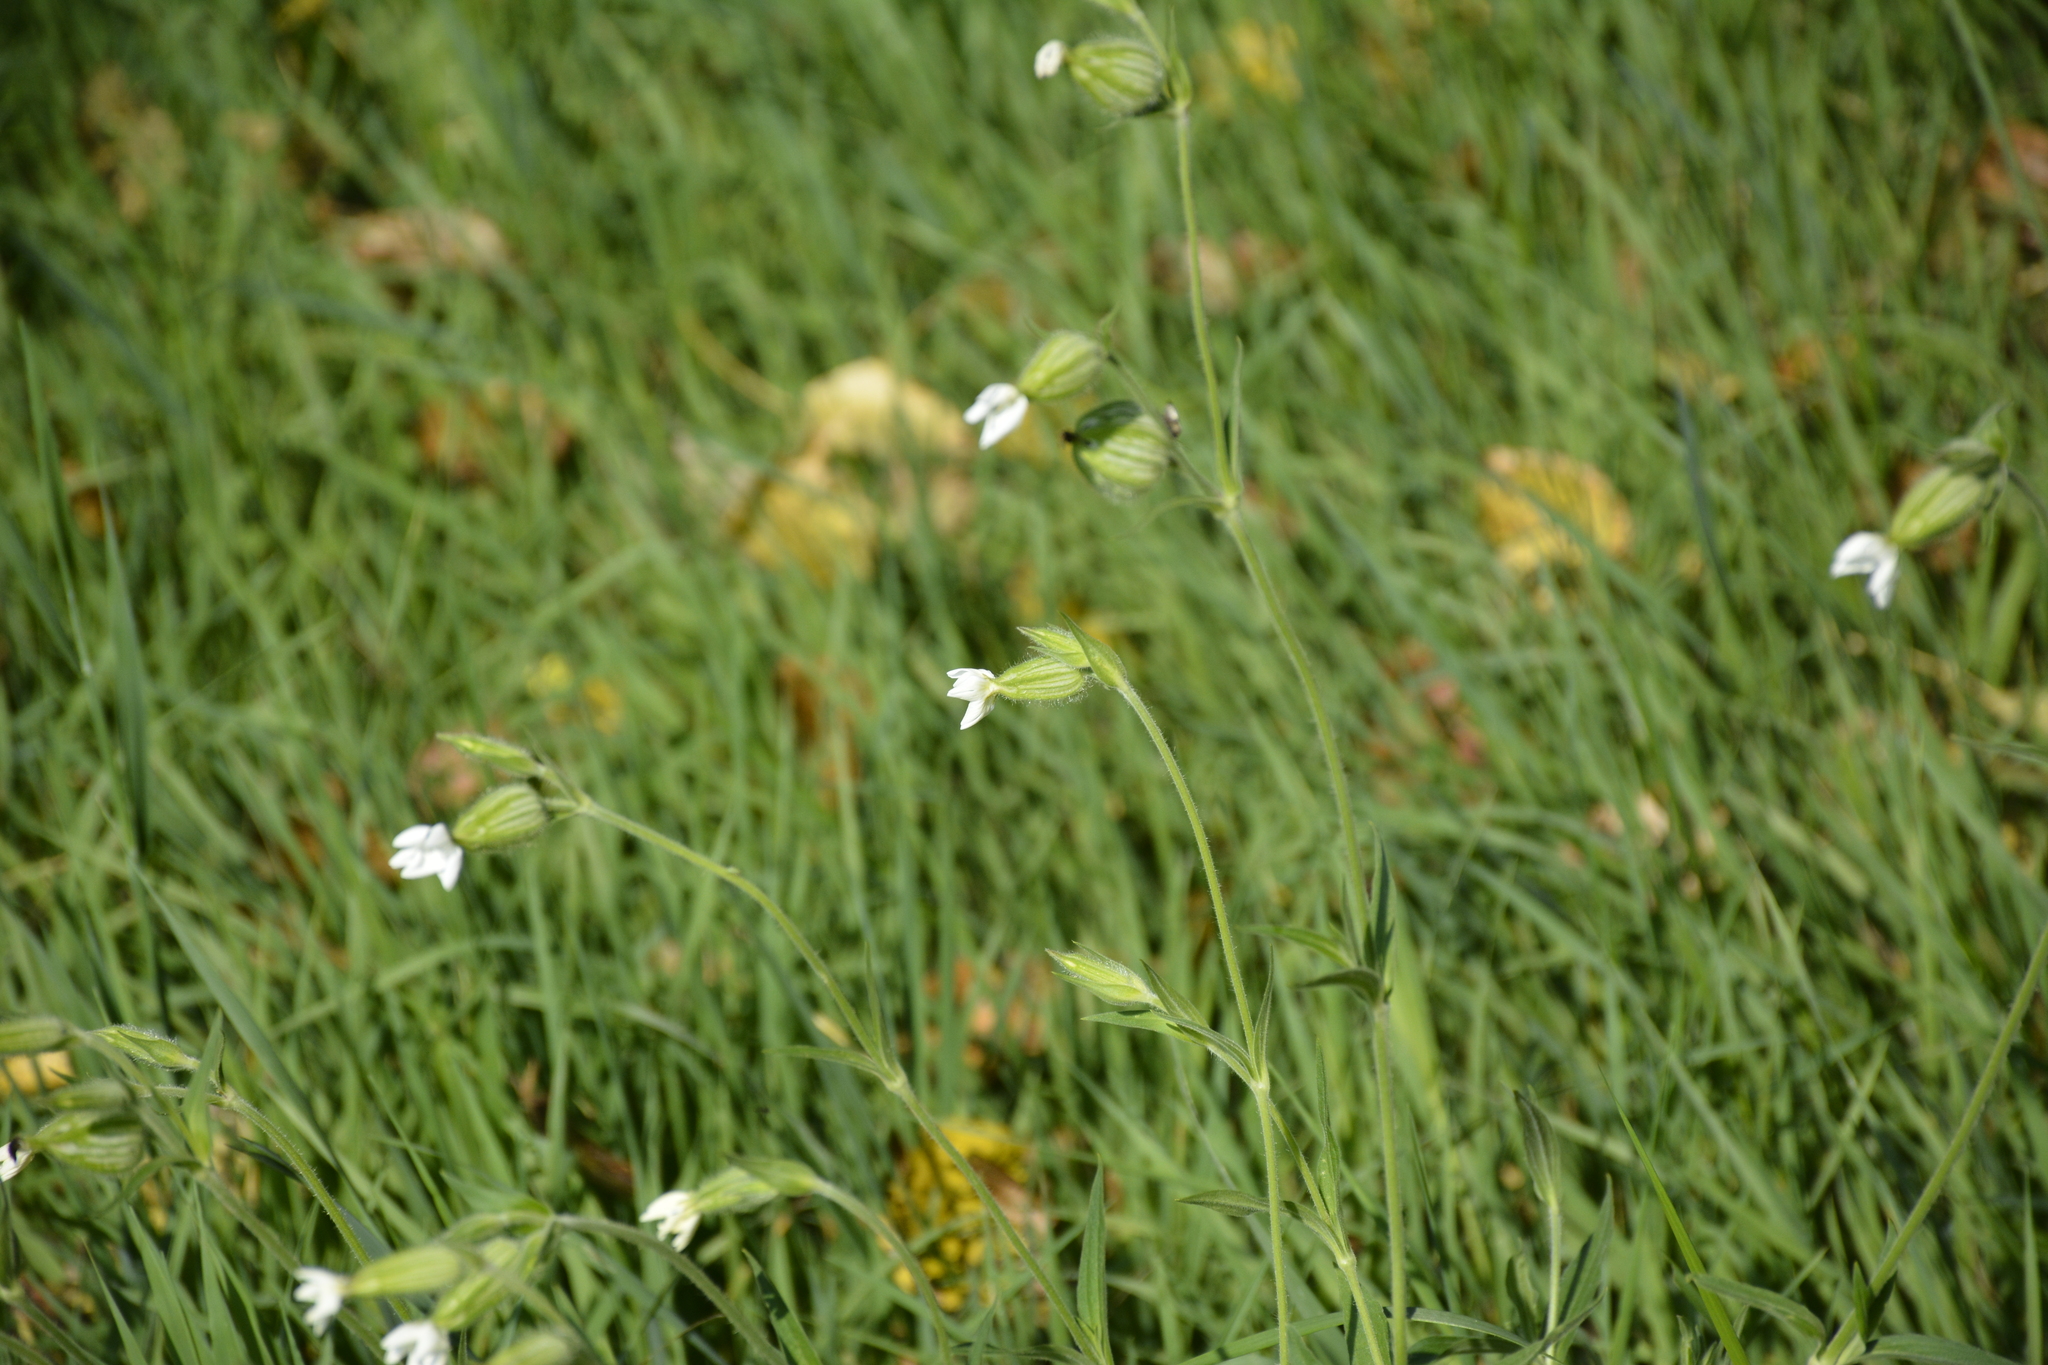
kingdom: Plantae
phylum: Tracheophyta
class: Magnoliopsida
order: Caryophyllales
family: Caryophyllaceae
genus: Silene
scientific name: Silene latifolia
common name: White campion
